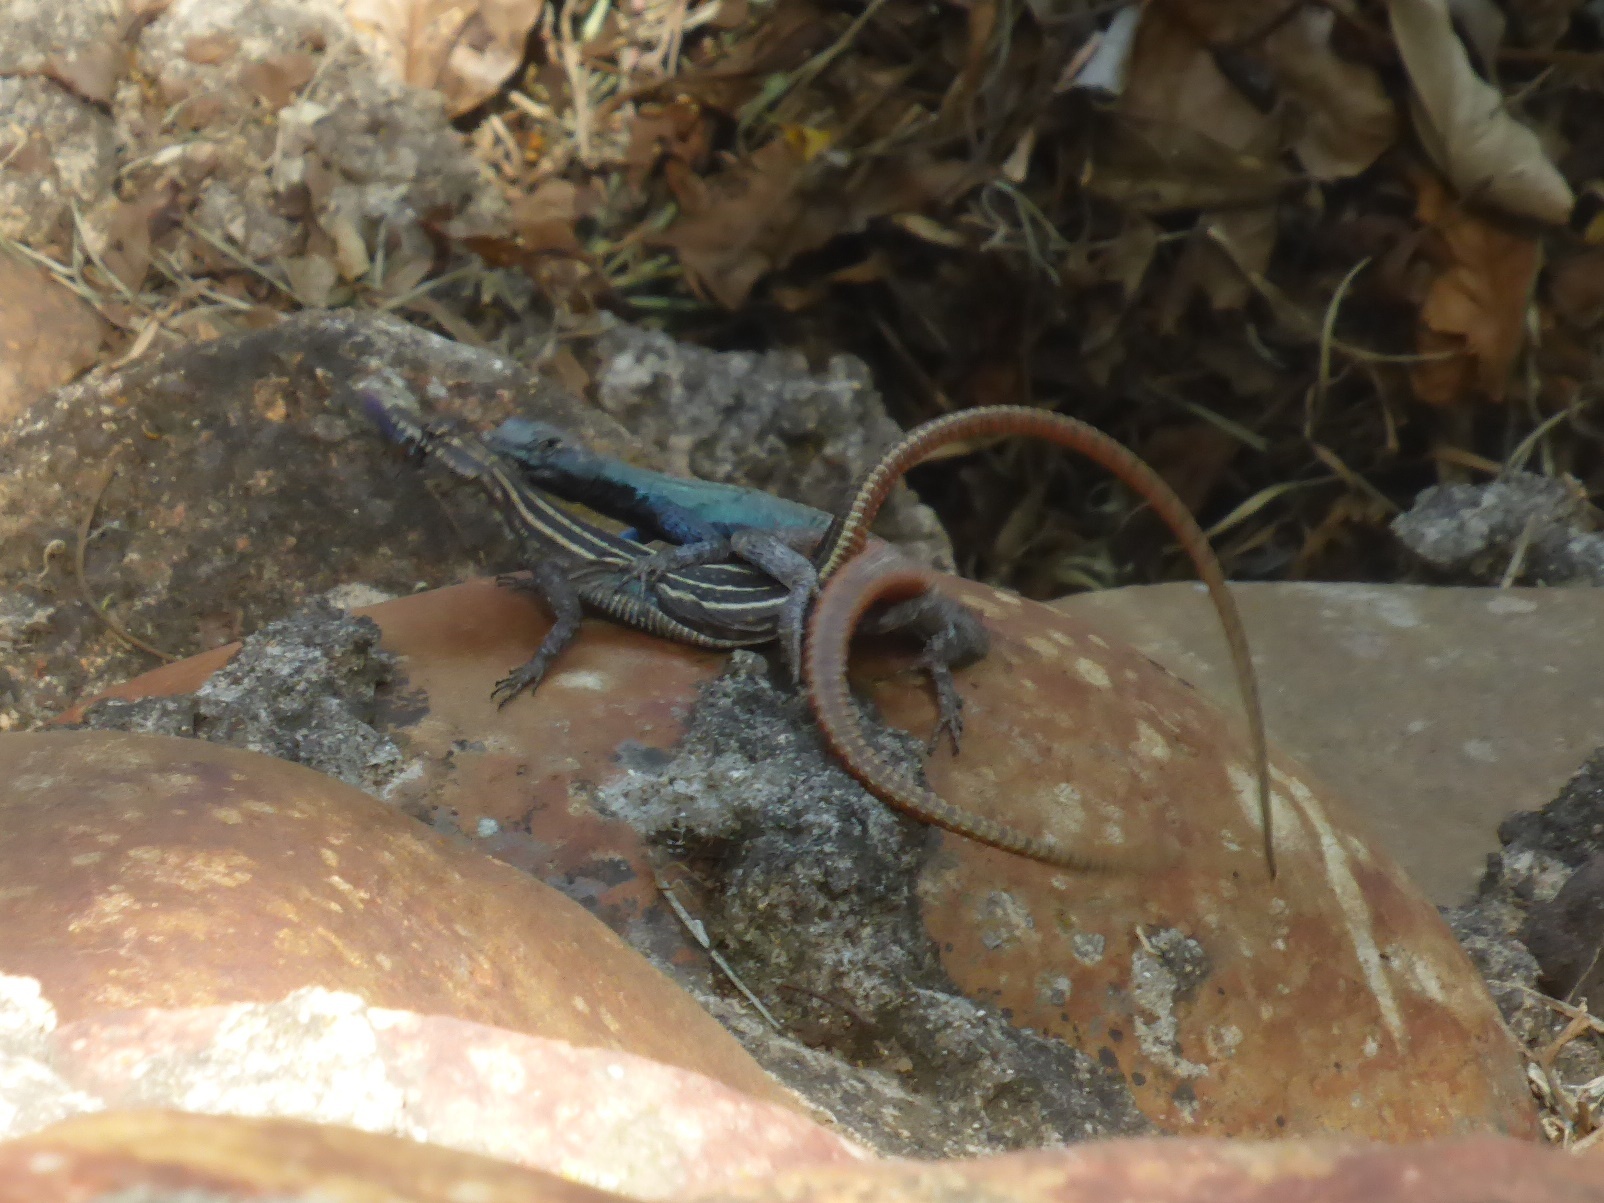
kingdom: Animalia
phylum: Chordata
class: Squamata
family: Cordylidae
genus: Platysaurus
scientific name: Platysaurus intermedius
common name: Common flat lizard
